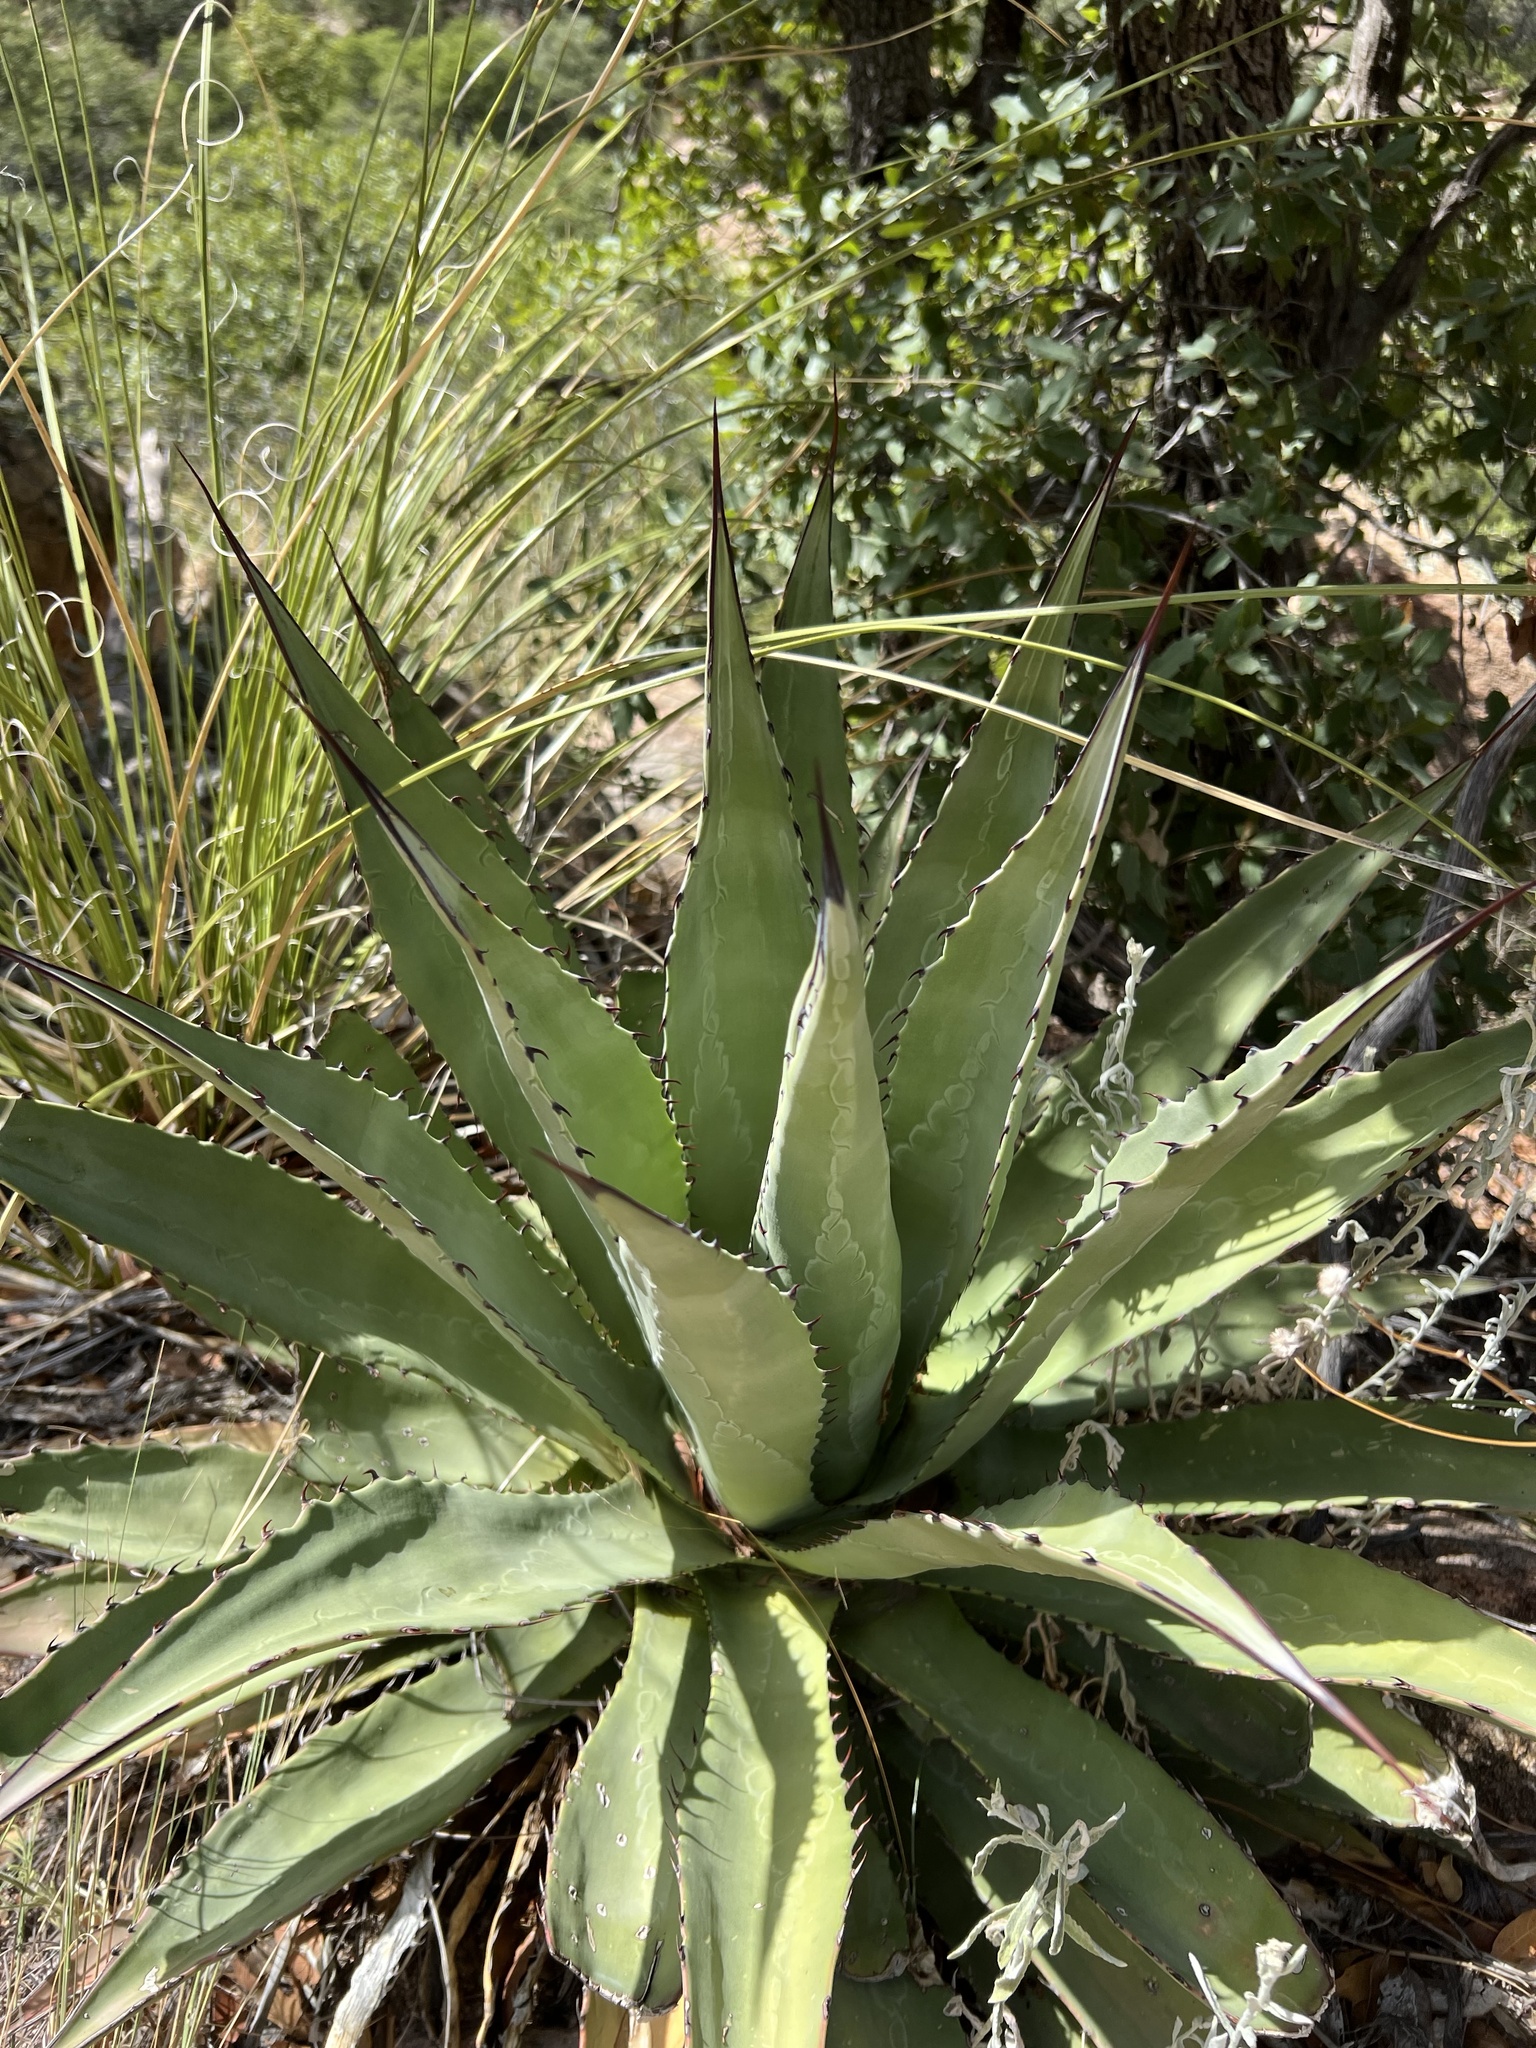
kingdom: Plantae
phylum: Tracheophyta
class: Liliopsida
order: Asparagales
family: Asparagaceae
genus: Agave
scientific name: Agave palmeri
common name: Palmer agave
